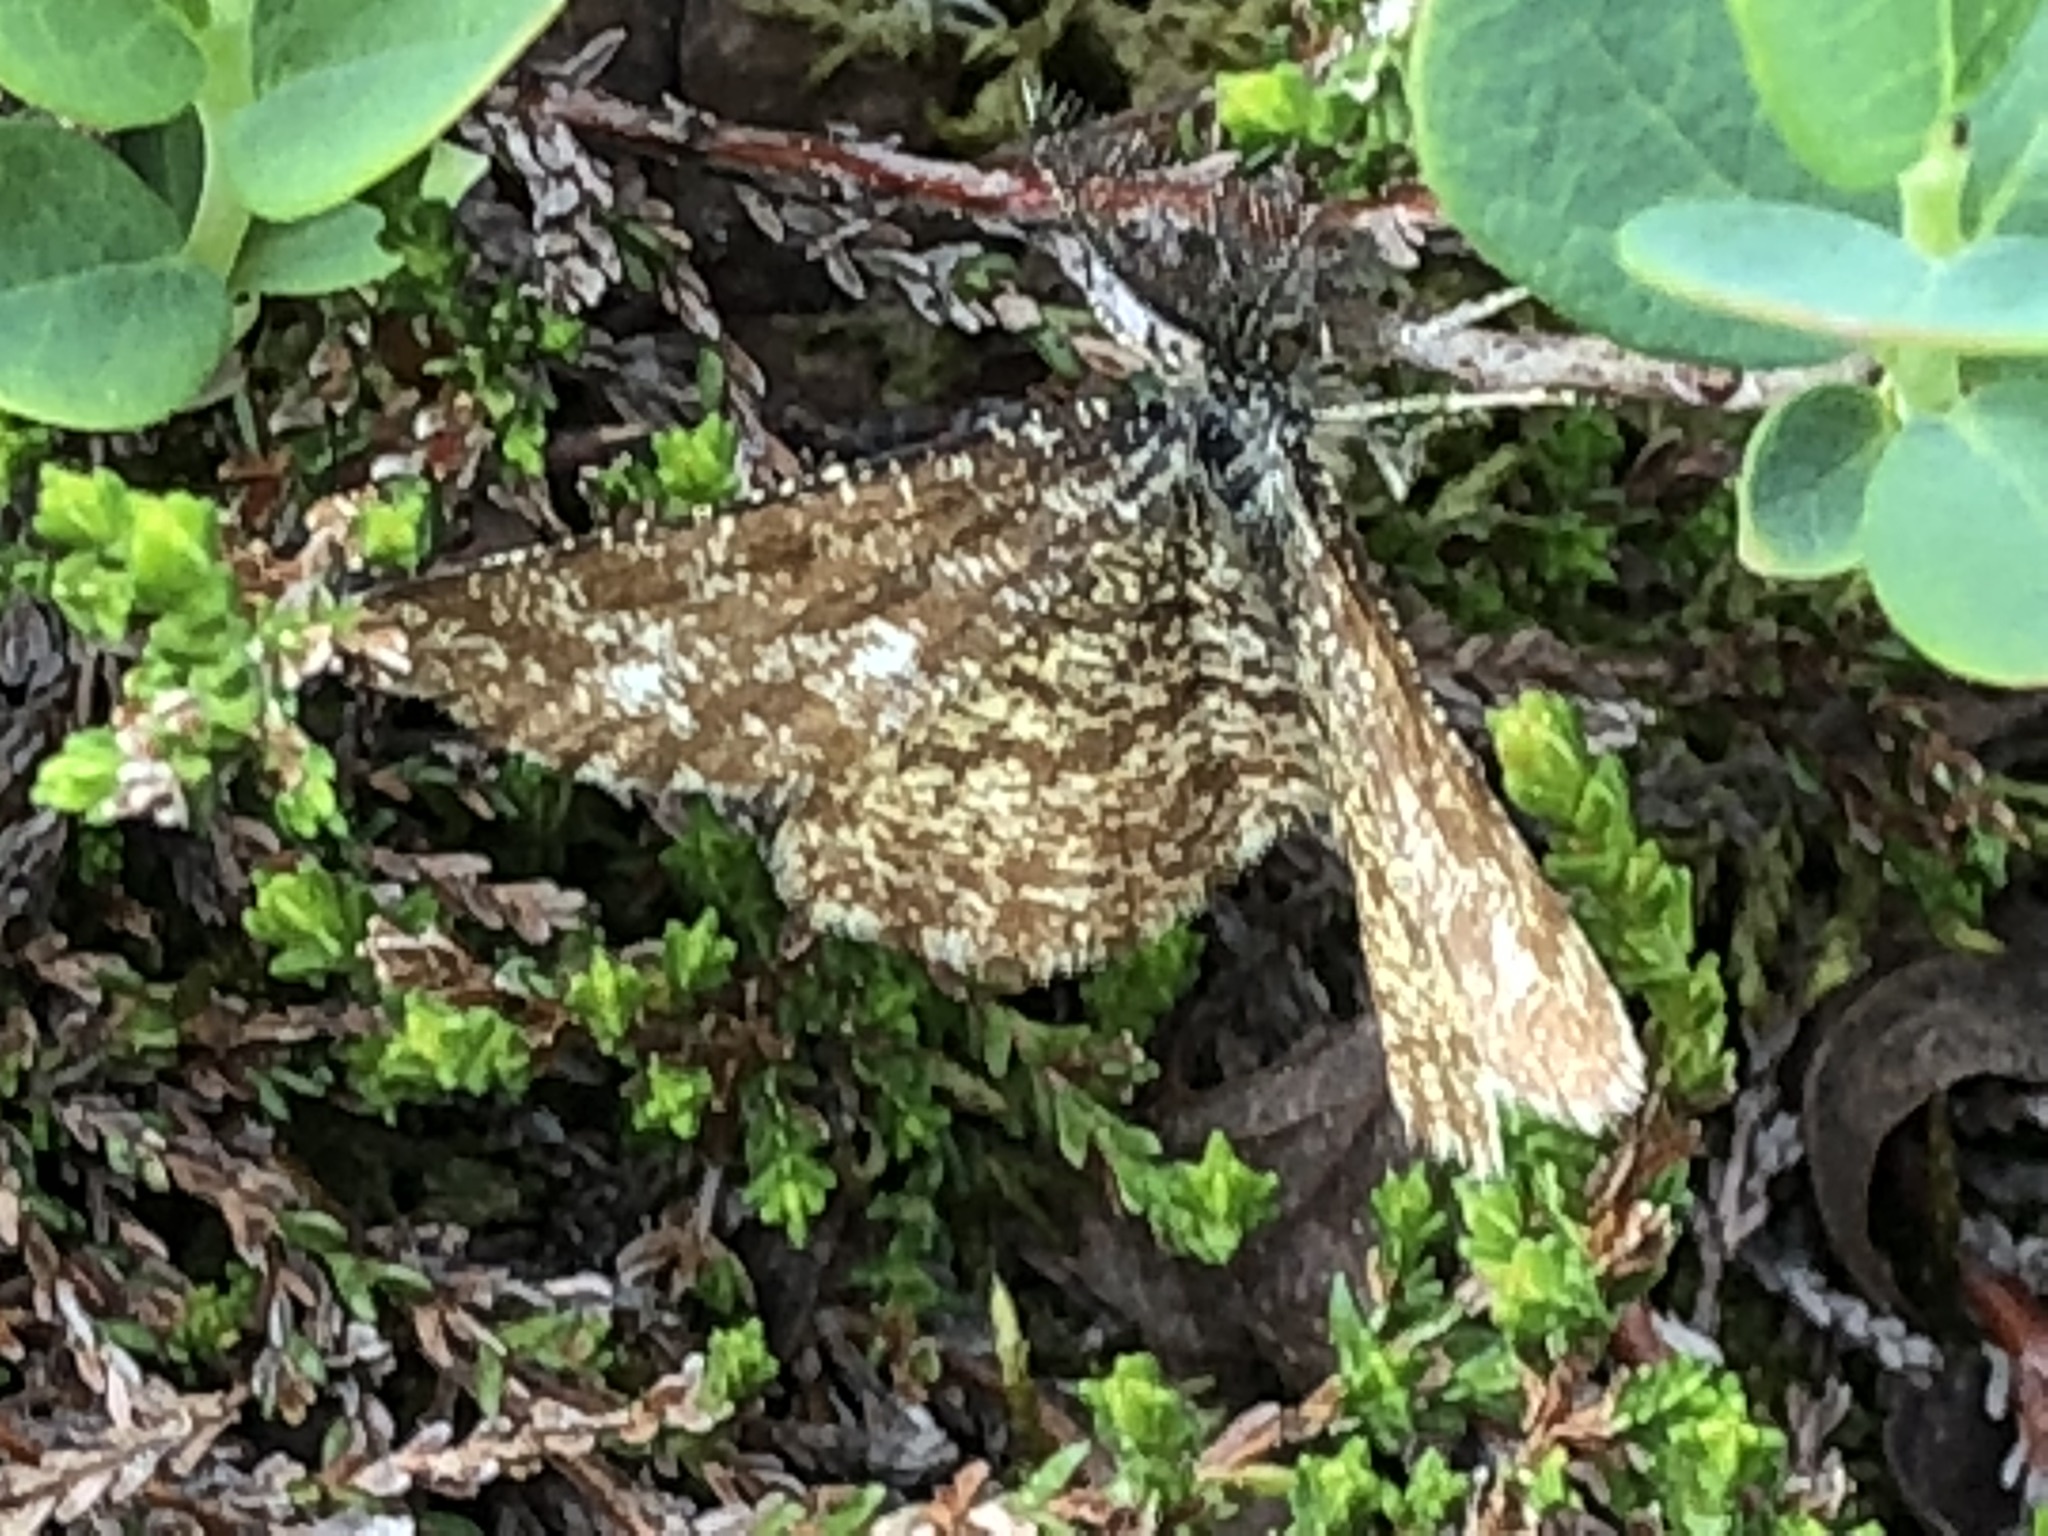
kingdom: Animalia
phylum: Arthropoda
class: Insecta
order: Lepidoptera
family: Geometridae
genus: Ematurga
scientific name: Ematurga atomaria
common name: Common heath
